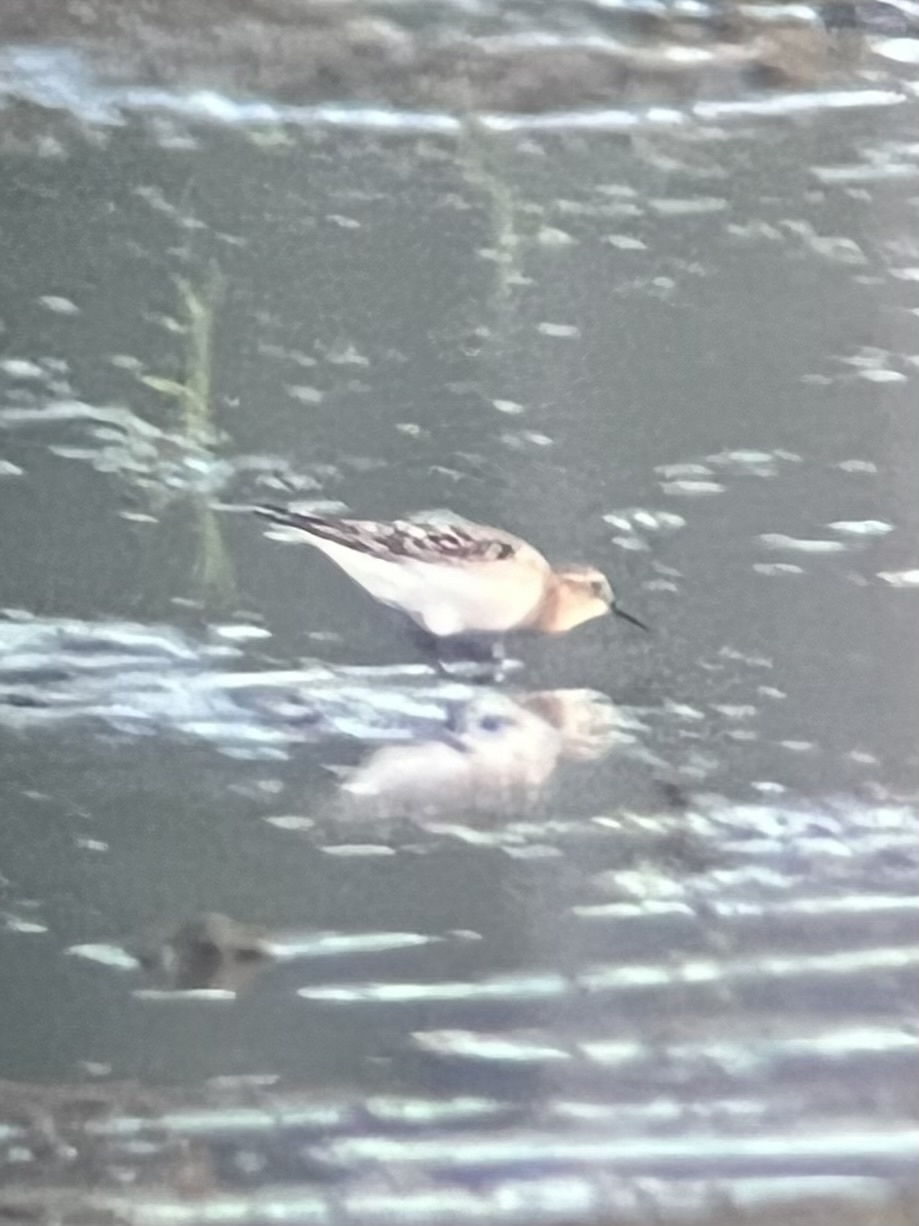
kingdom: Animalia
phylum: Chordata
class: Aves
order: Charadriiformes
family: Scolopacidae
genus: Calidris
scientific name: Calidris bairdii
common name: Baird's sandpiper
